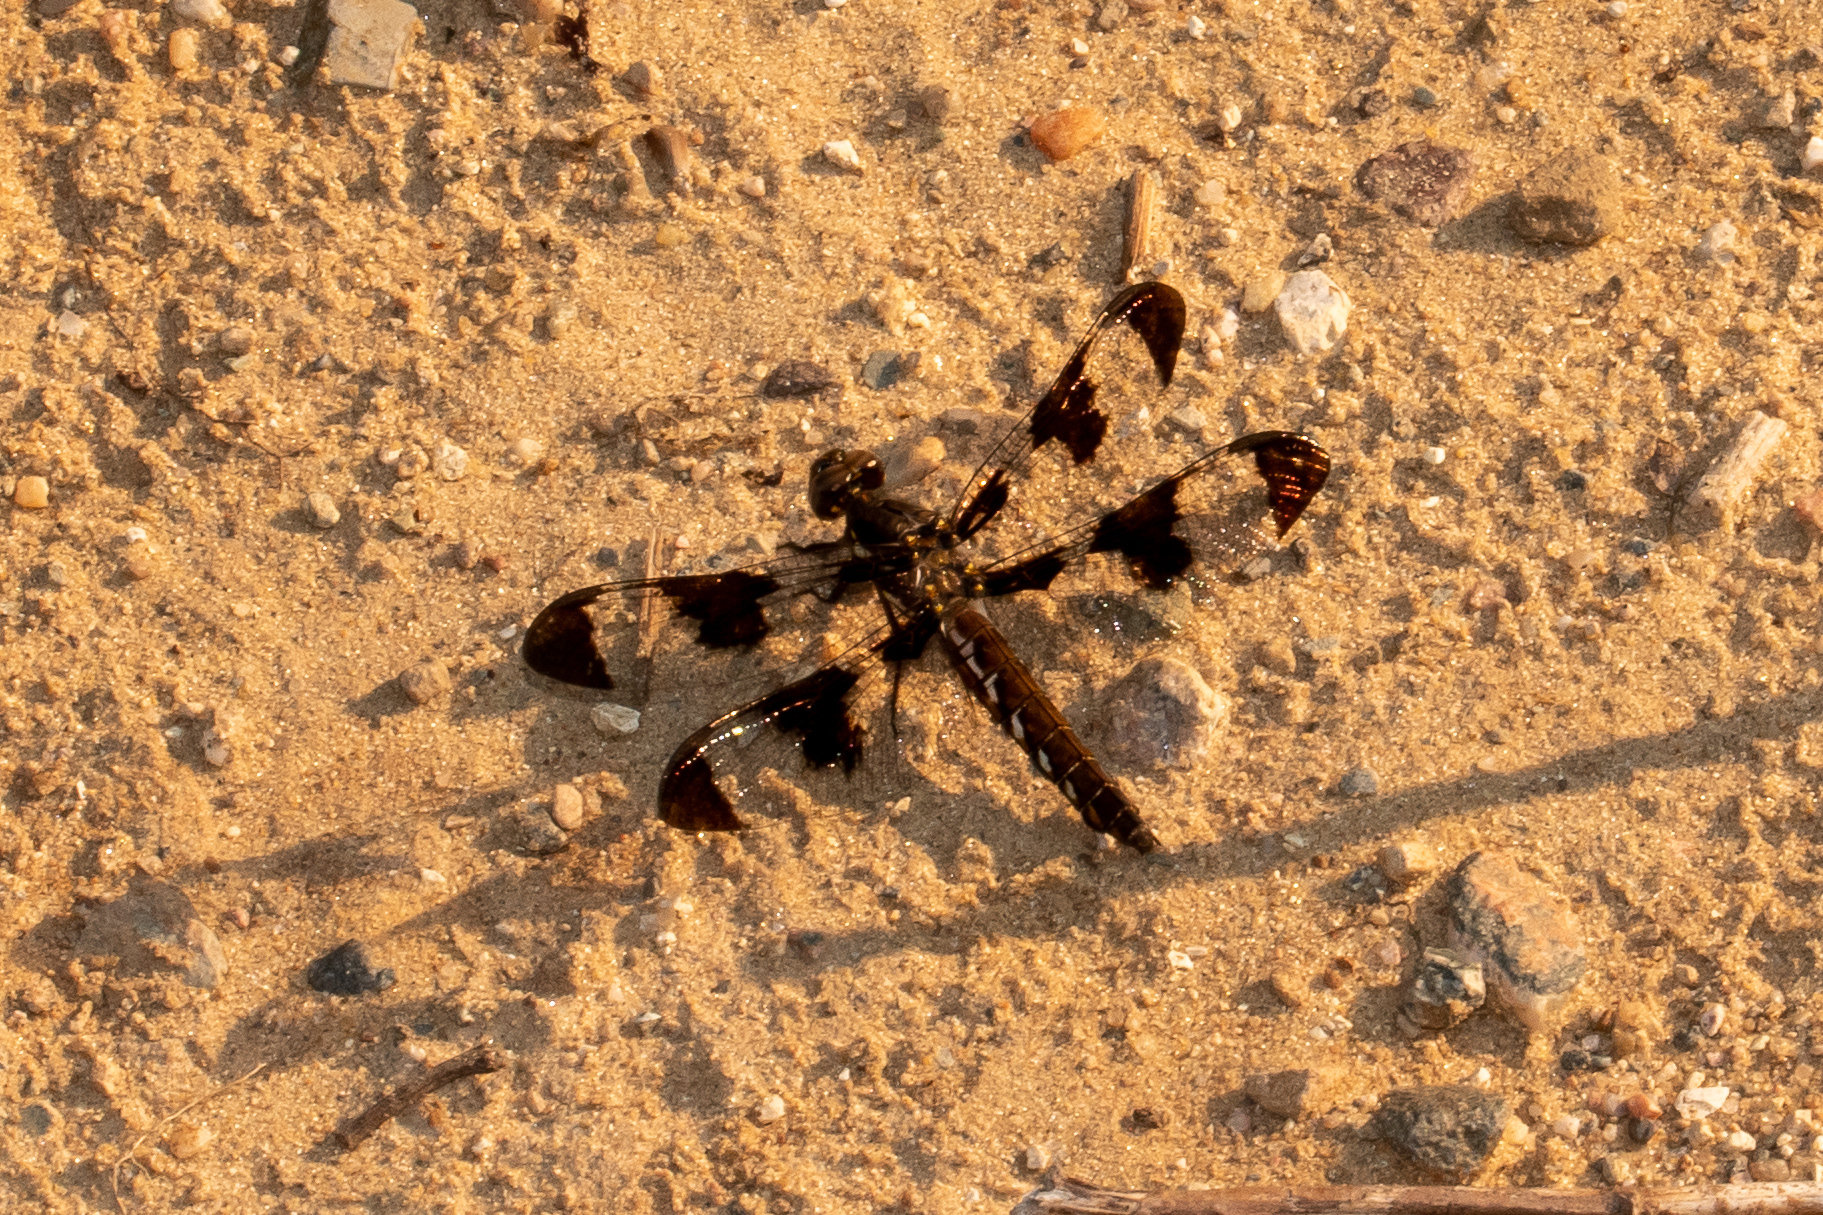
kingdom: Animalia
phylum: Arthropoda
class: Insecta
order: Odonata
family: Libellulidae
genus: Plathemis
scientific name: Plathemis lydia
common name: Common whitetail
